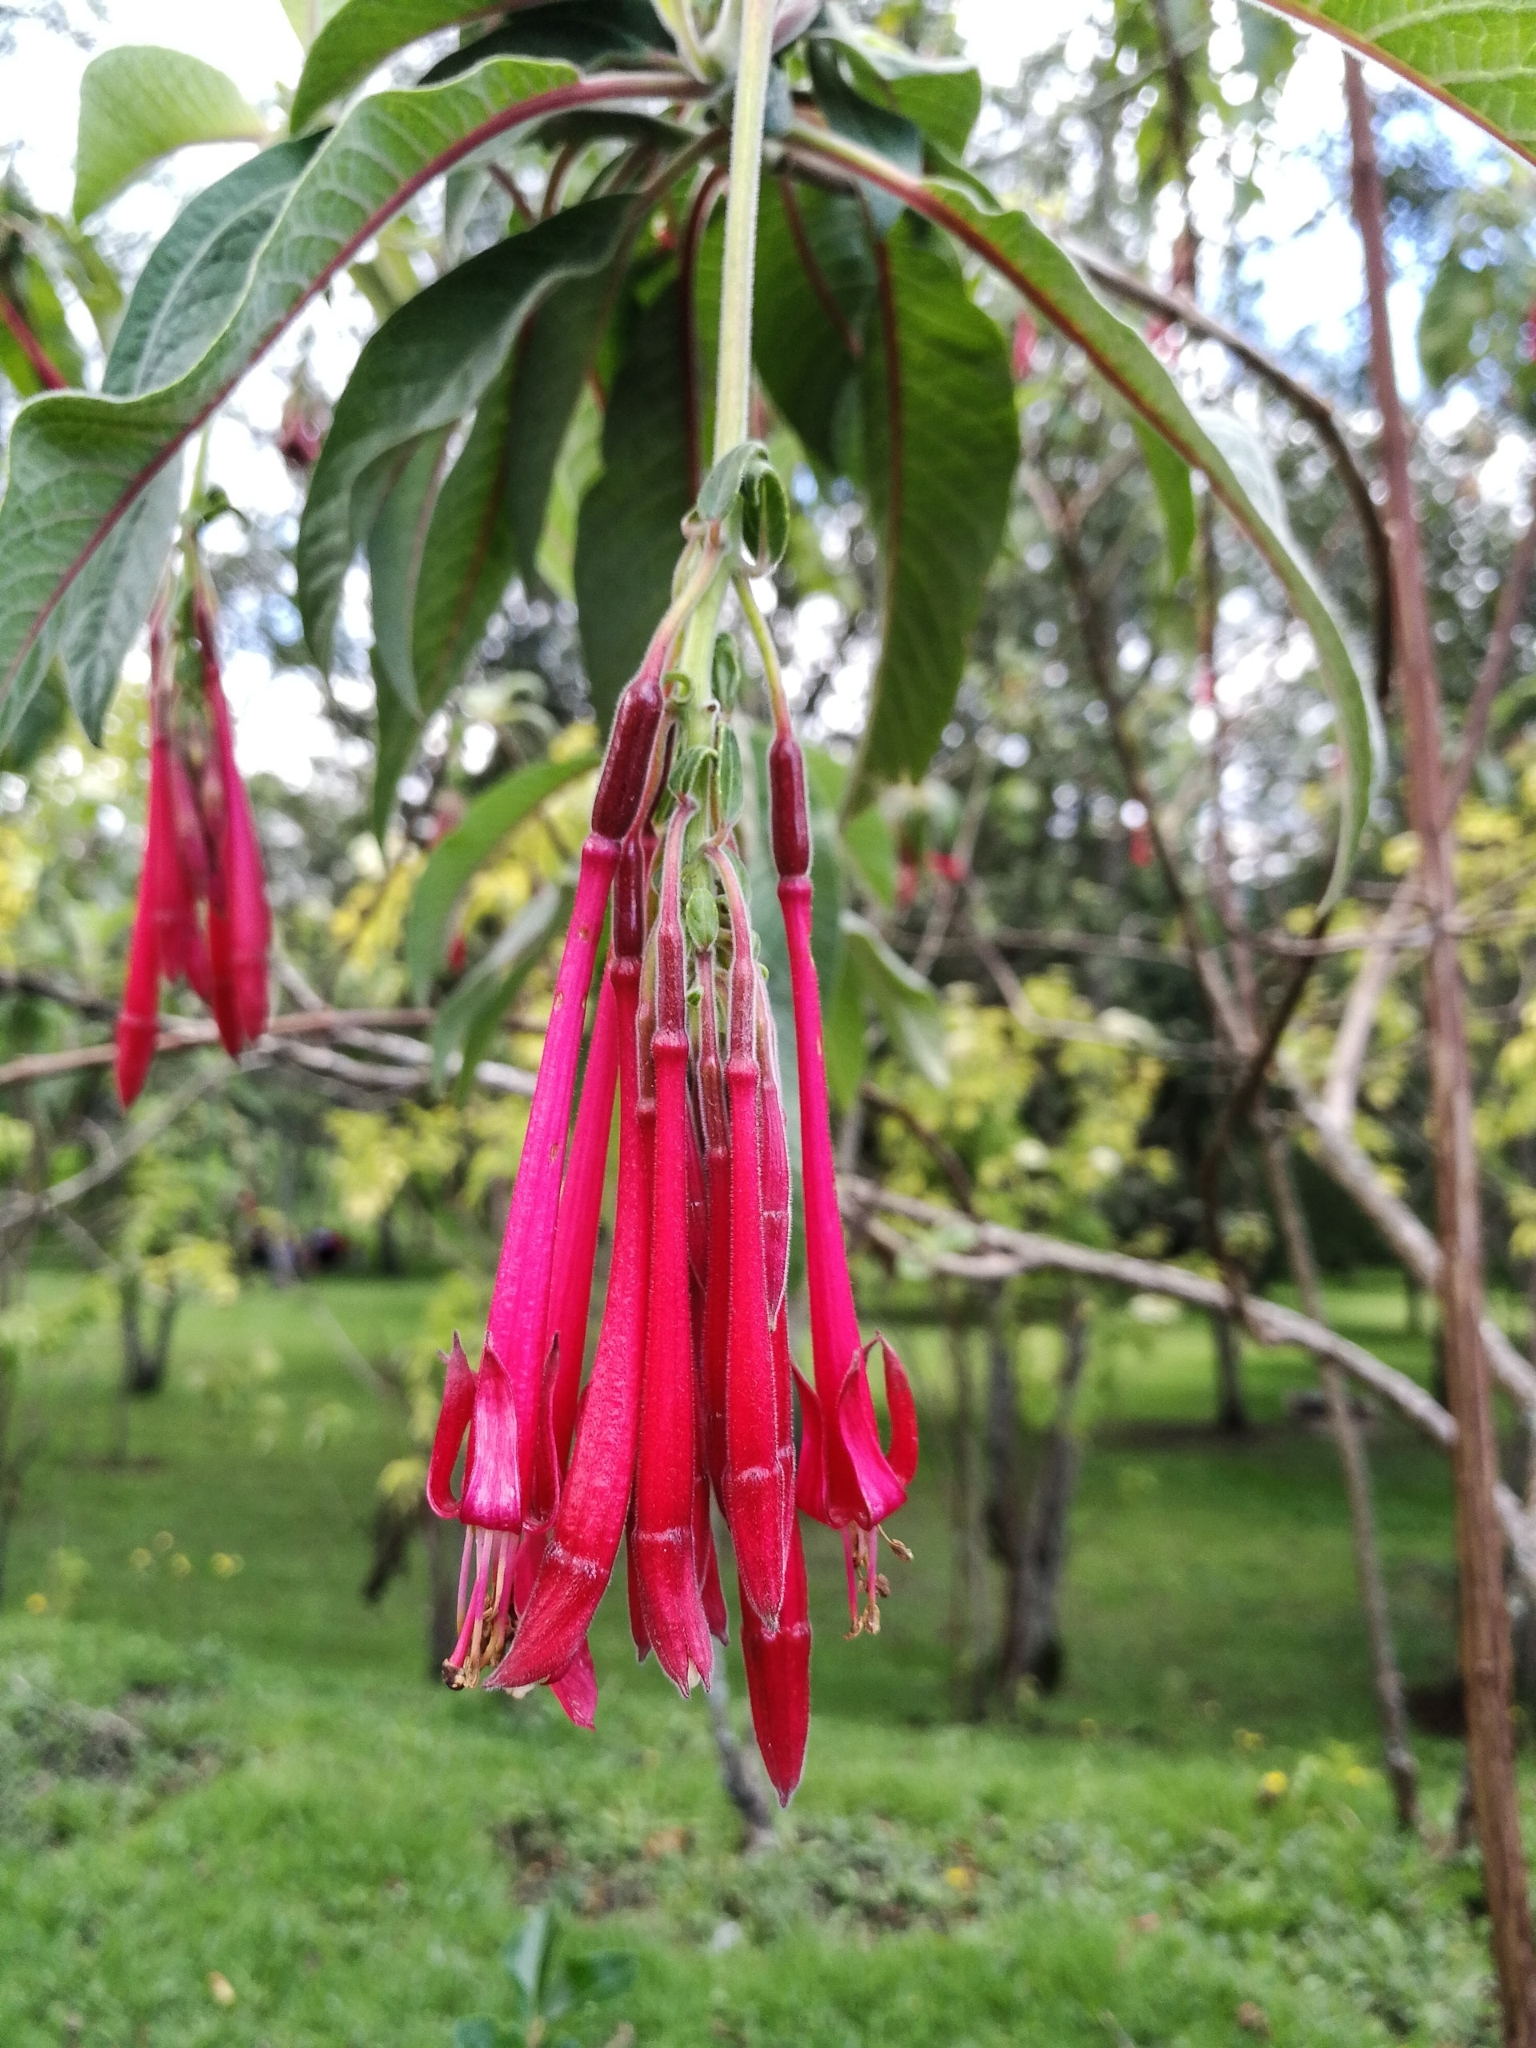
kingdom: Plantae
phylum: Tracheophyta
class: Magnoliopsida
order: Myrtales
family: Onagraceae
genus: Fuchsia
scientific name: Fuchsia boliviana
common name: Bolivian fuchsia
